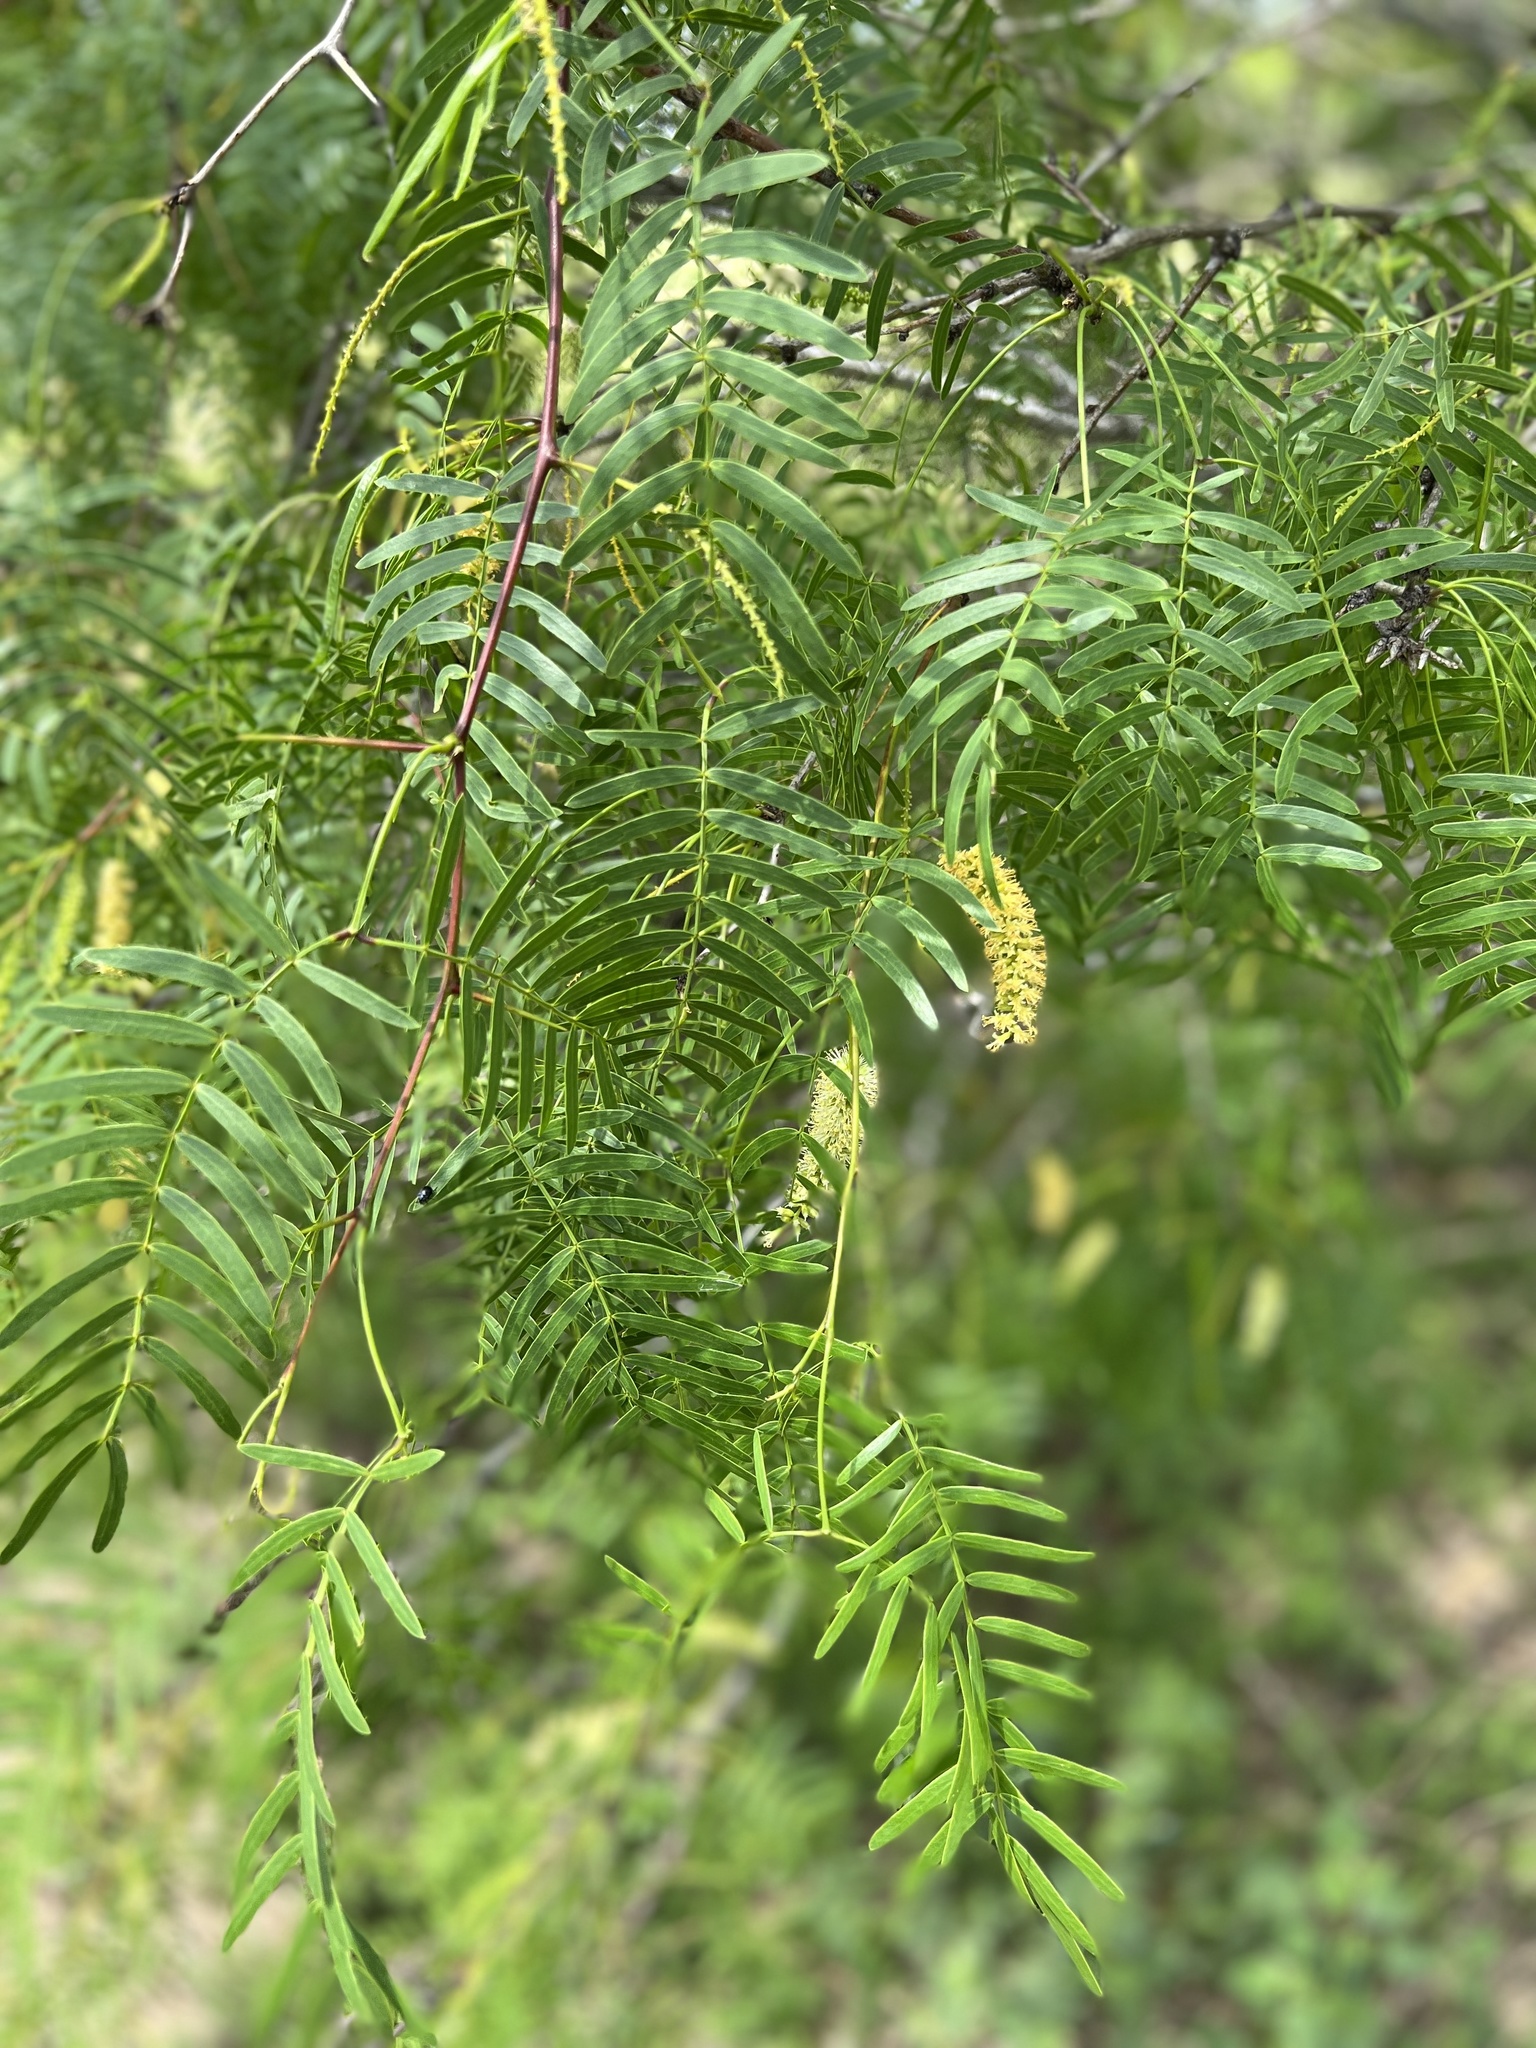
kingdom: Plantae
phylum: Tracheophyta
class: Magnoliopsida
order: Fabales
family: Fabaceae
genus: Prosopis
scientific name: Prosopis glandulosa
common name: Honey mesquite
